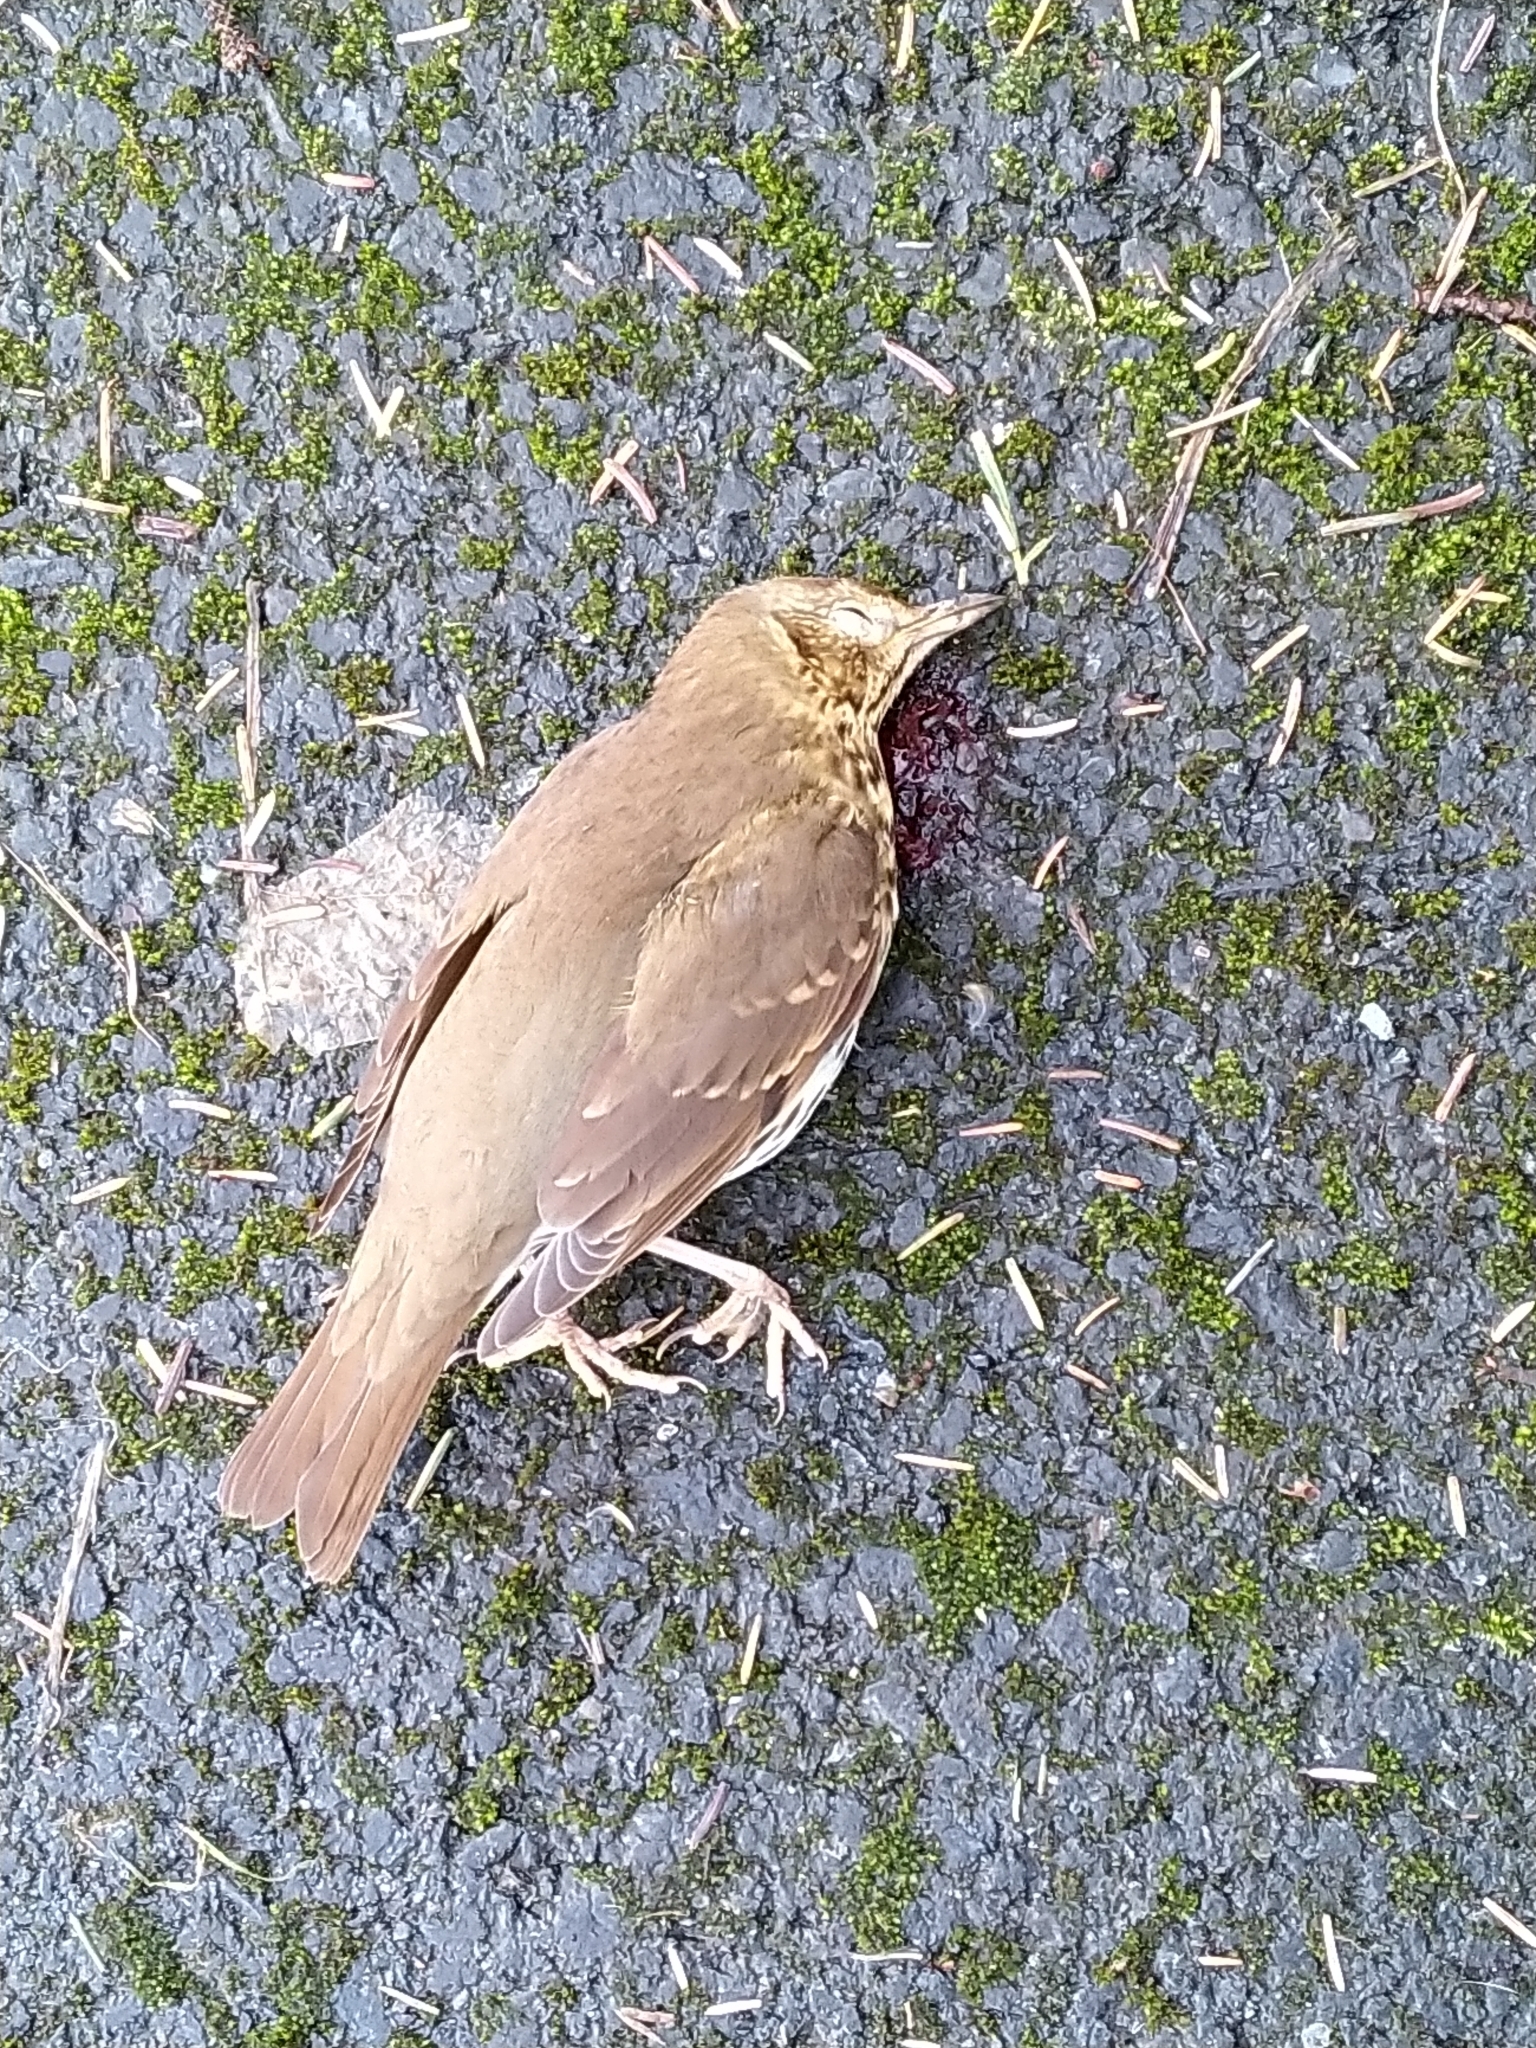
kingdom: Animalia
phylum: Chordata
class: Aves
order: Passeriformes
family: Turdidae
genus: Turdus
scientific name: Turdus philomelos
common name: Song thrush
